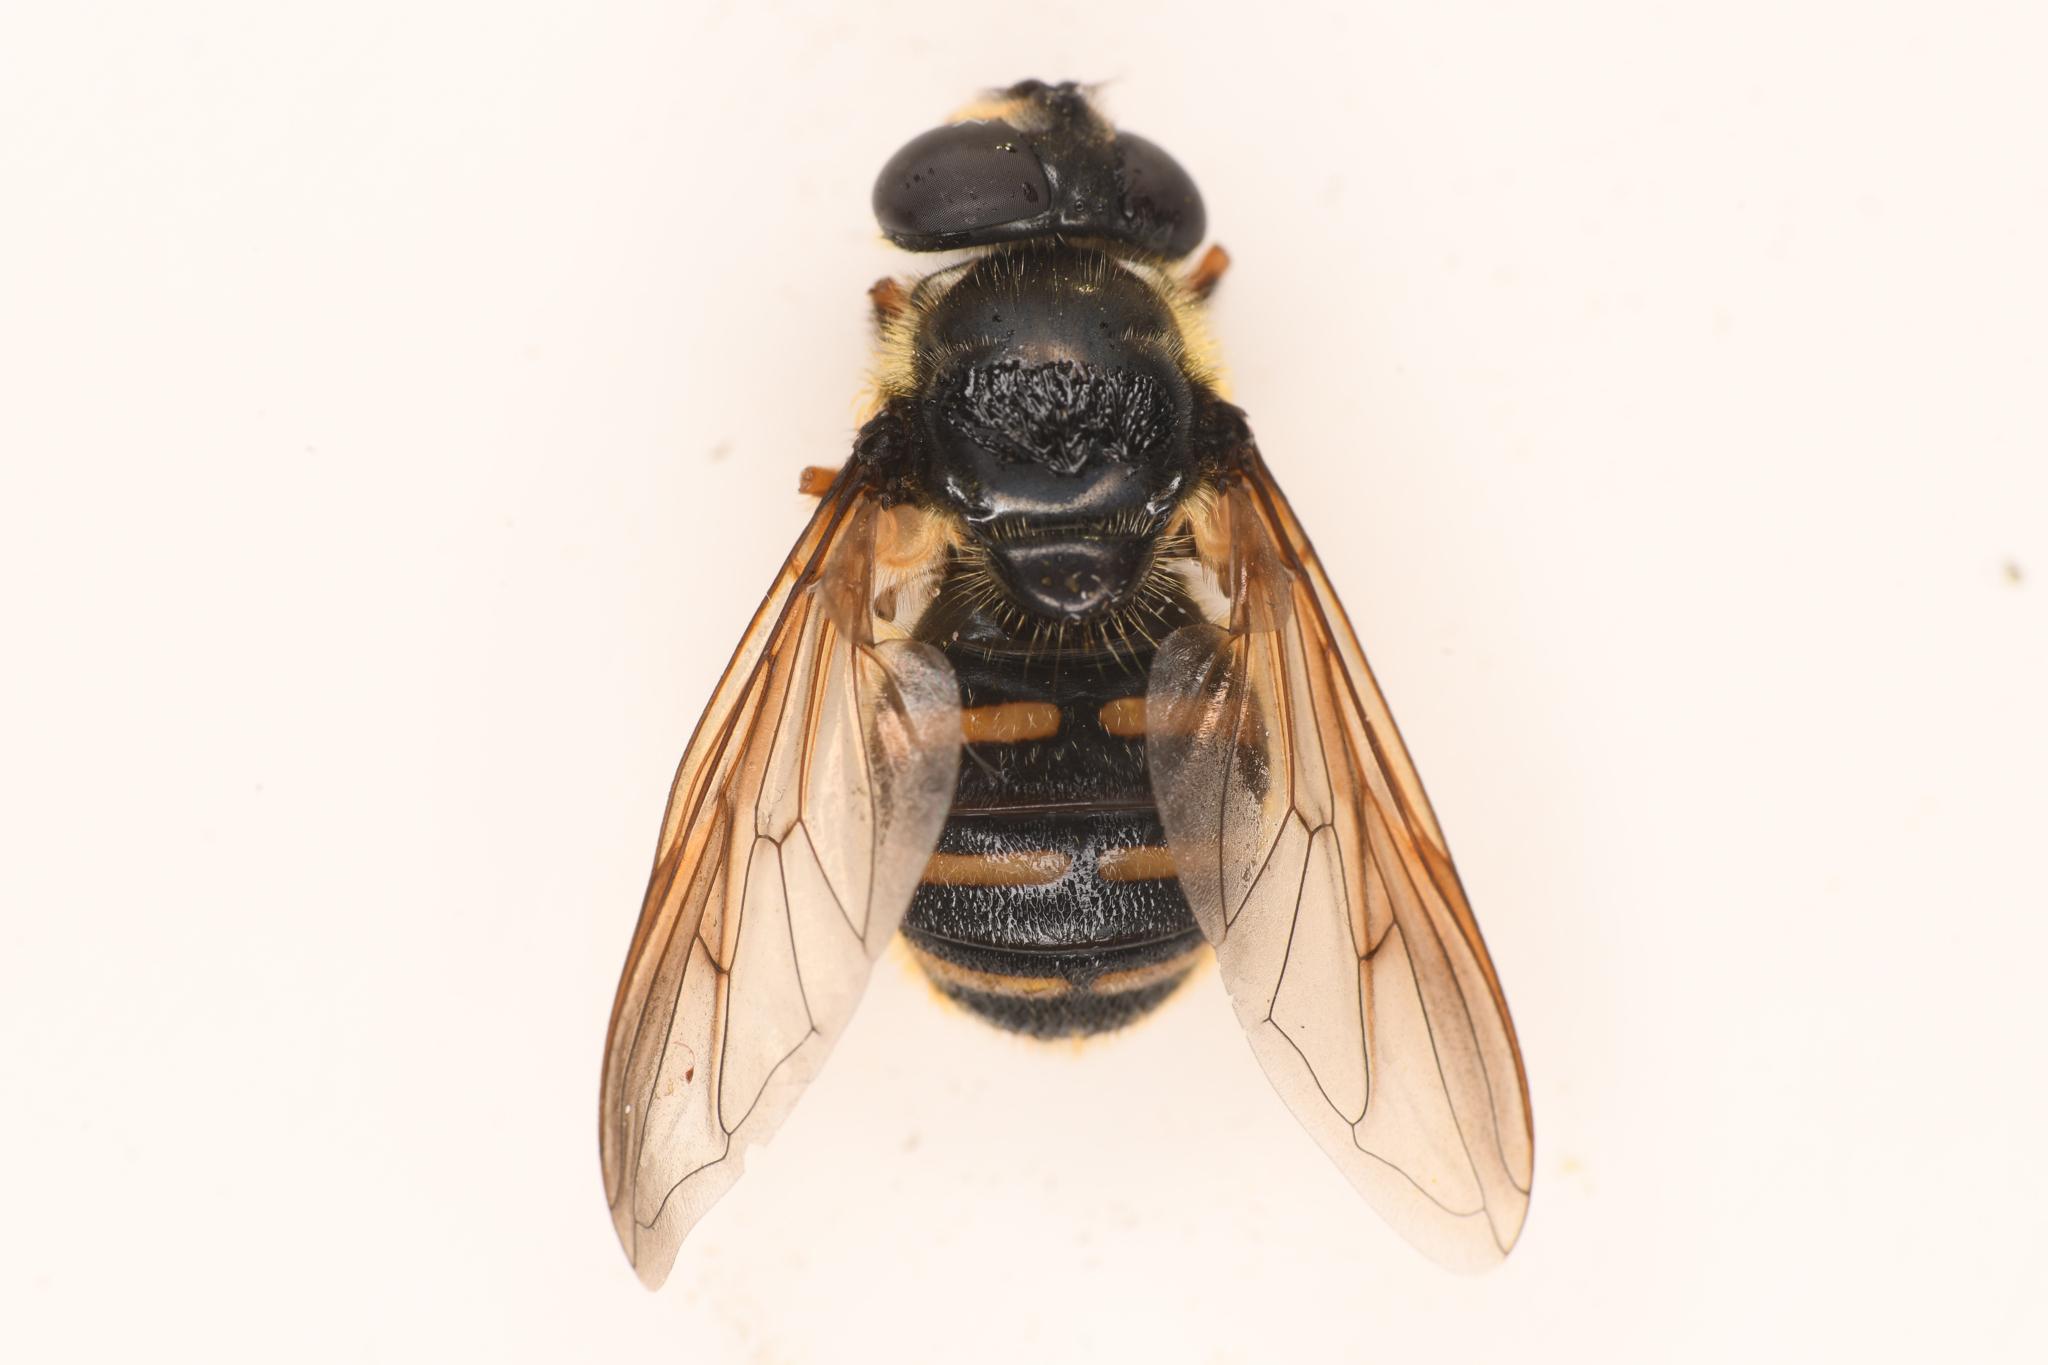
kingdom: Animalia
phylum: Arthropoda
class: Insecta
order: Diptera
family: Syrphidae
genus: Sericomyia
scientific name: Sericomyia chalcopyga
